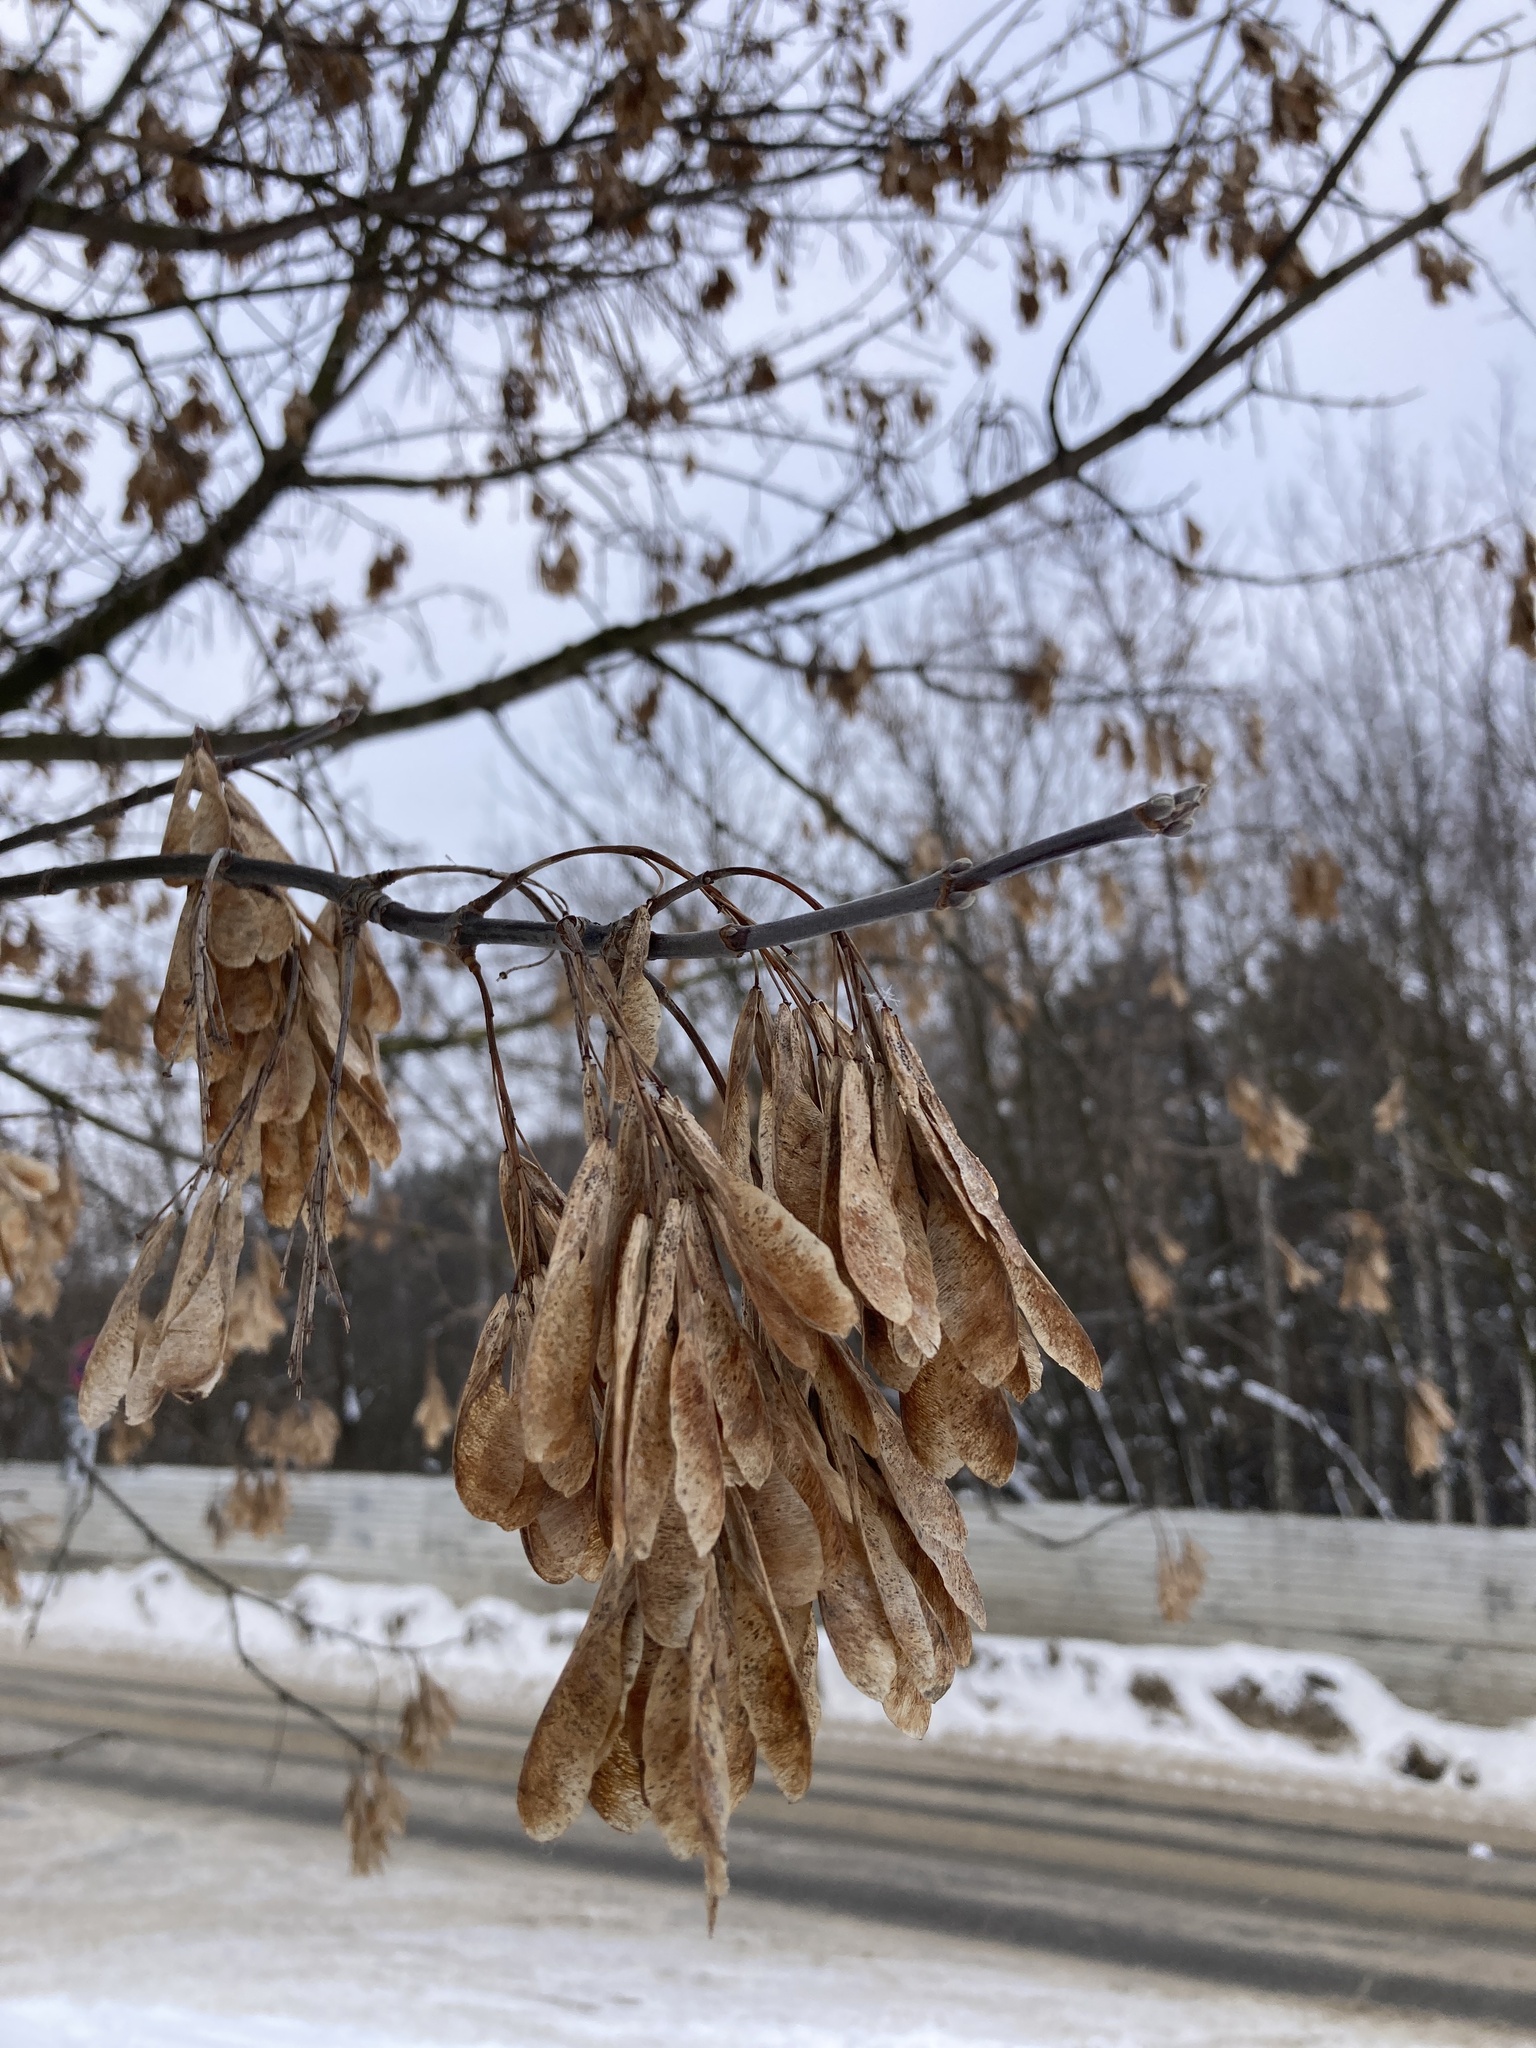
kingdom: Plantae
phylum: Tracheophyta
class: Magnoliopsida
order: Sapindales
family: Sapindaceae
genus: Acer
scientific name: Acer negundo
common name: Ashleaf maple
